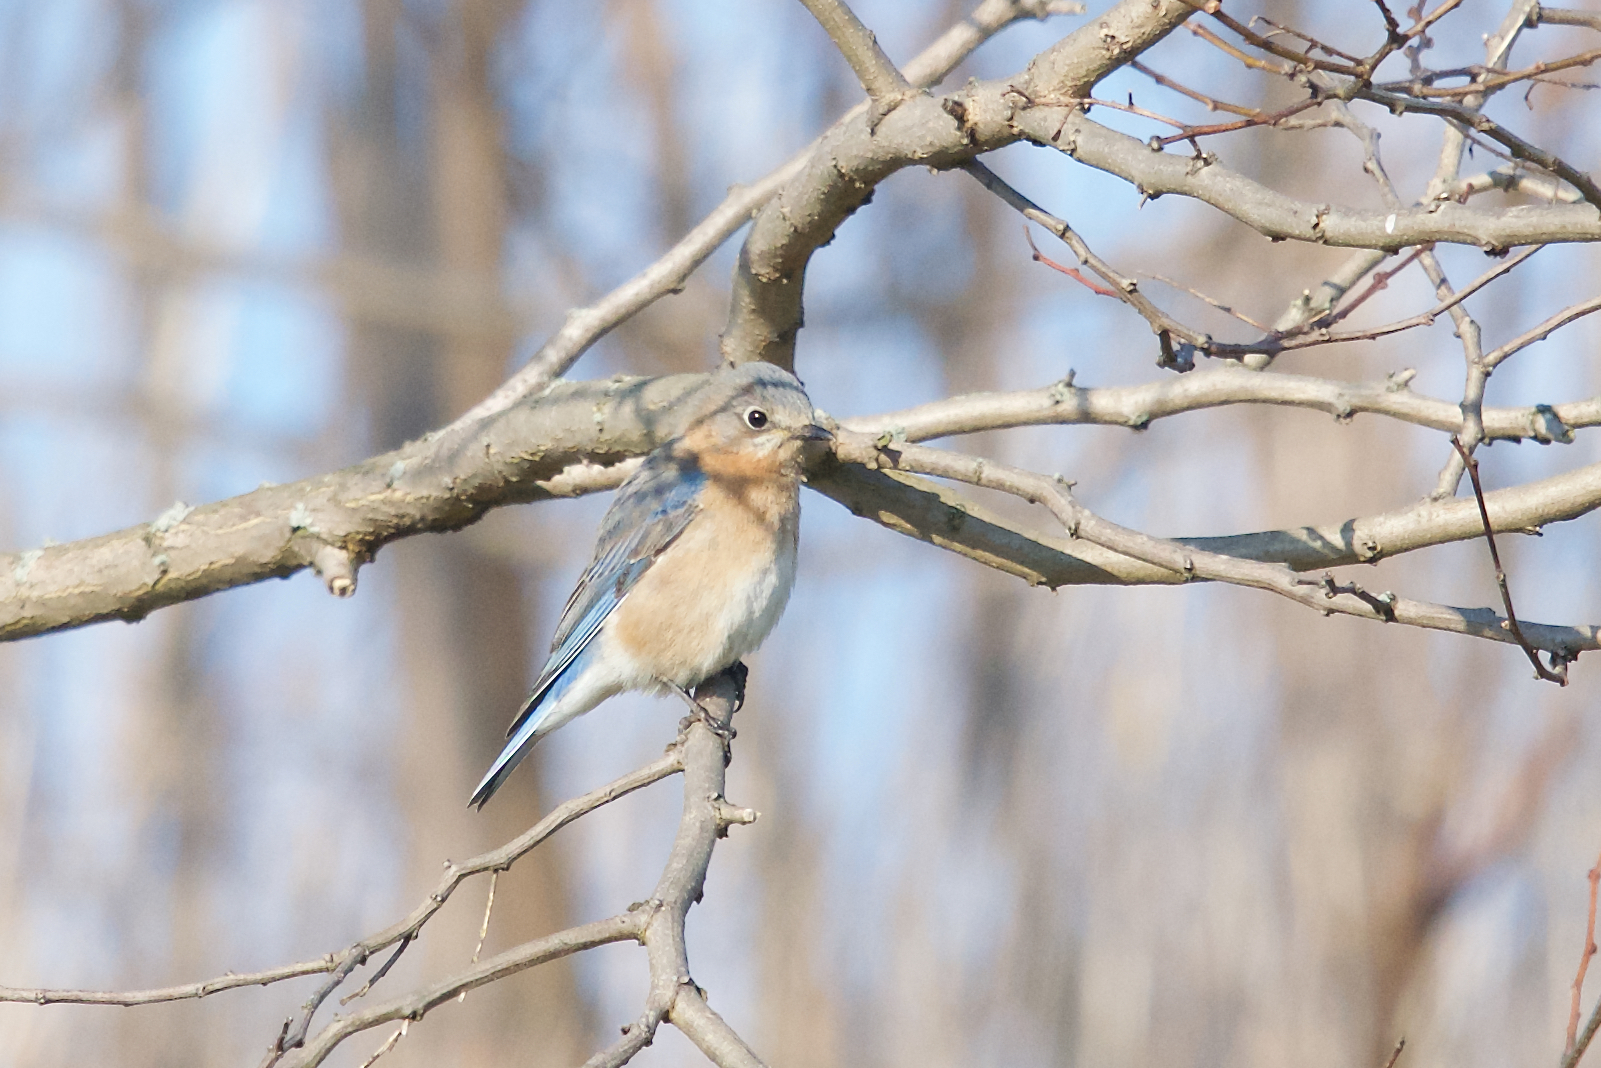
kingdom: Animalia
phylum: Chordata
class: Aves
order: Passeriformes
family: Turdidae
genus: Sialia
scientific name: Sialia sialis
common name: Eastern bluebird
